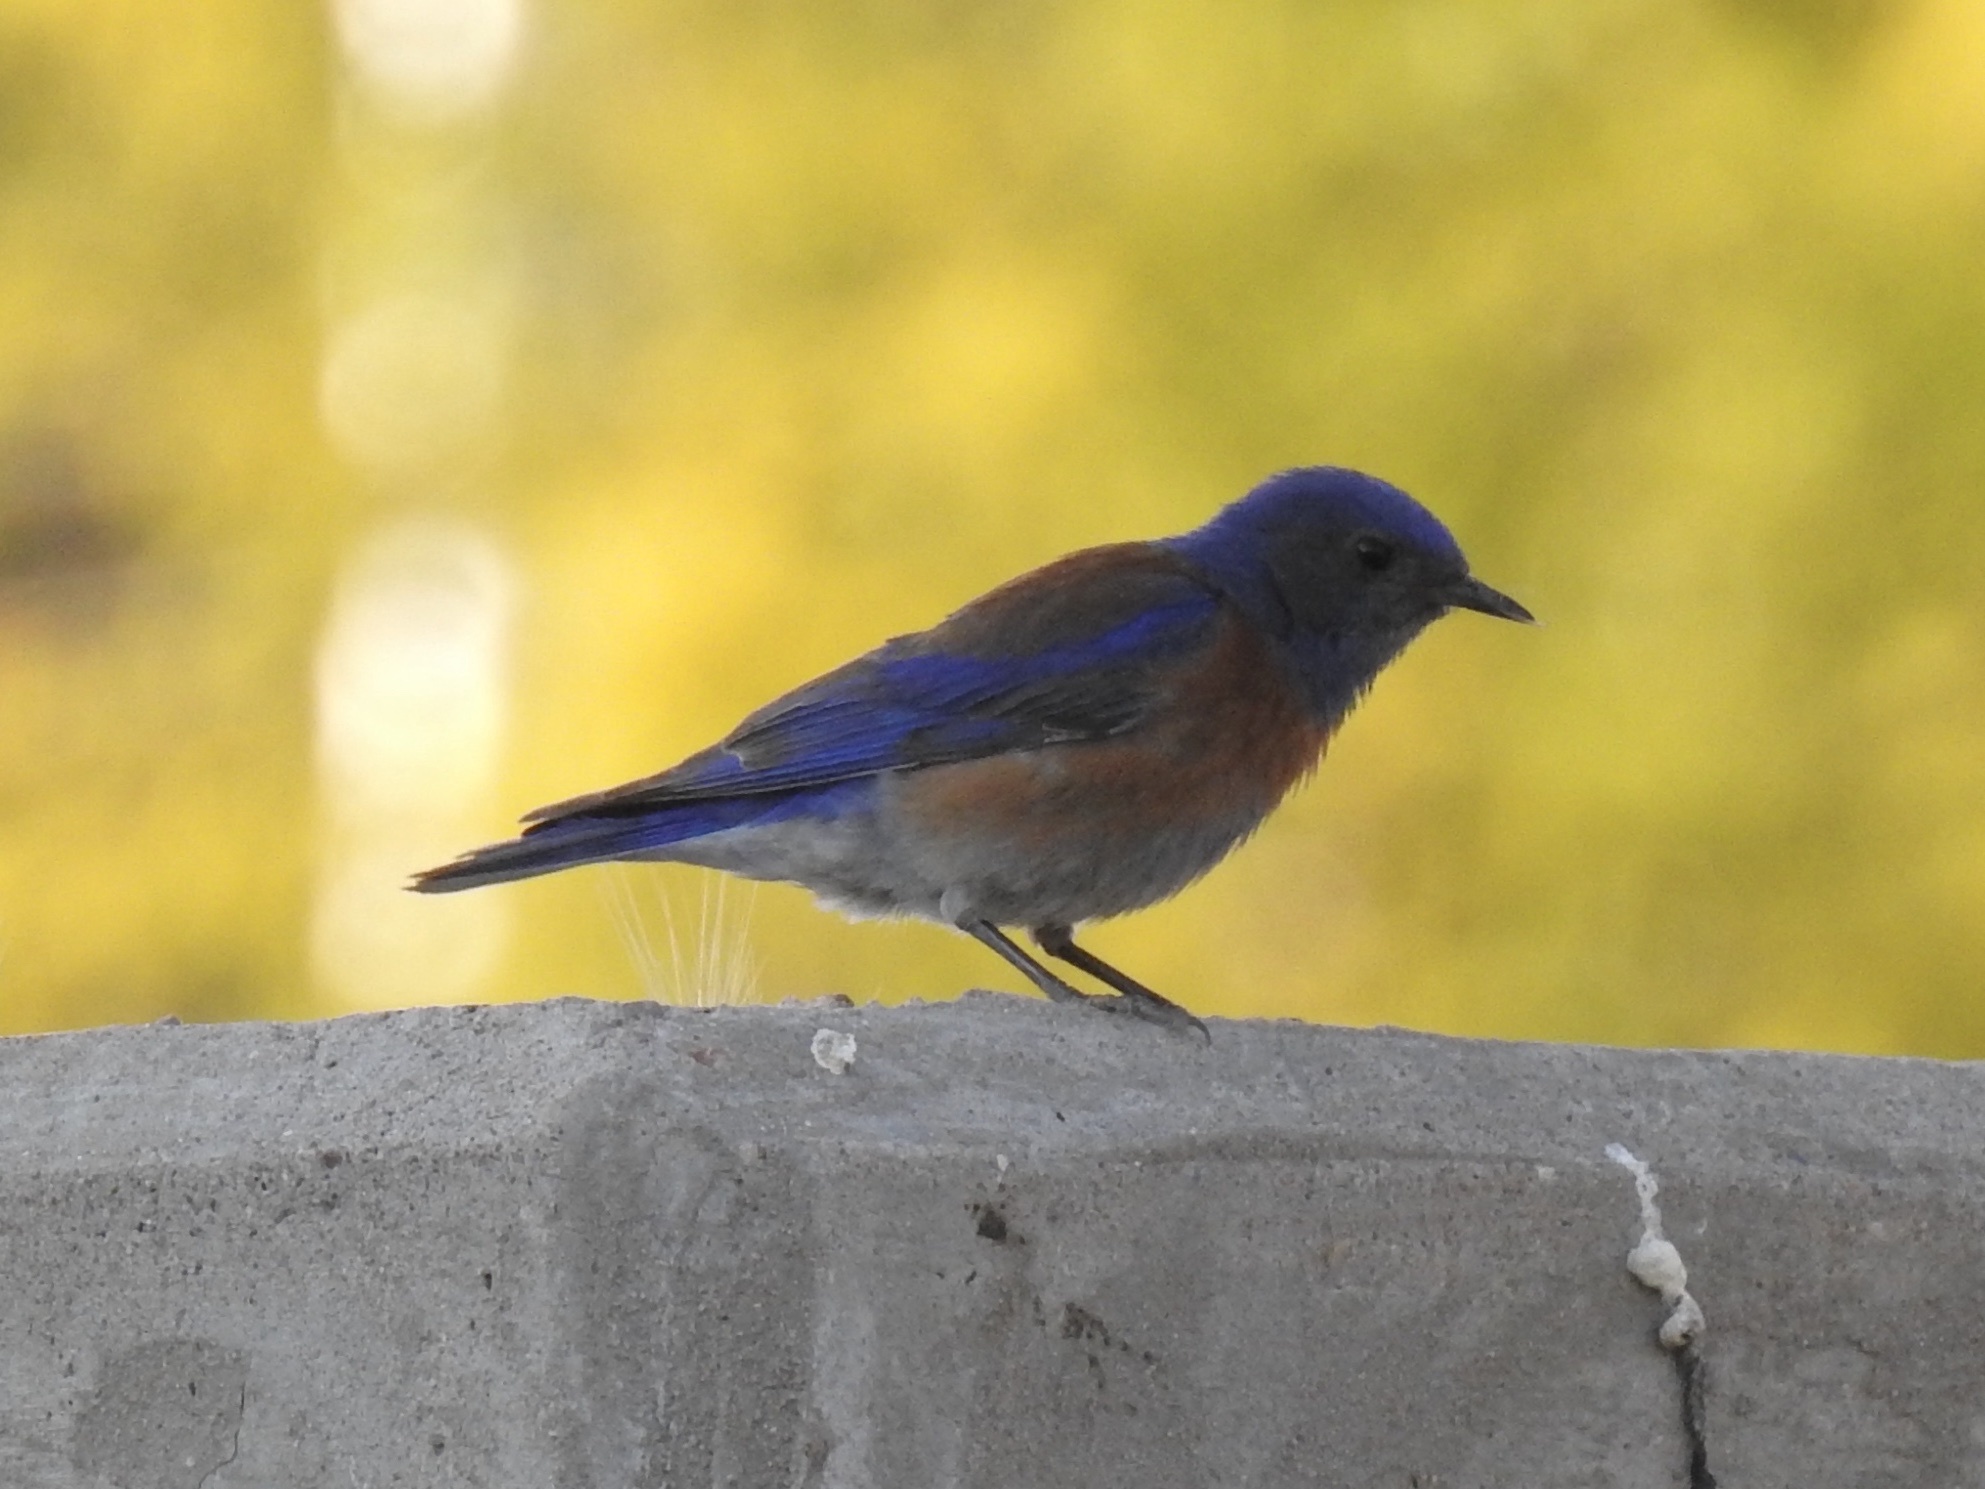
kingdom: Animalia
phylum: Chordata
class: Aves
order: Passeriformes
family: Turdidae
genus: Sialia
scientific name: Sialia mexicana
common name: Western bluebird
